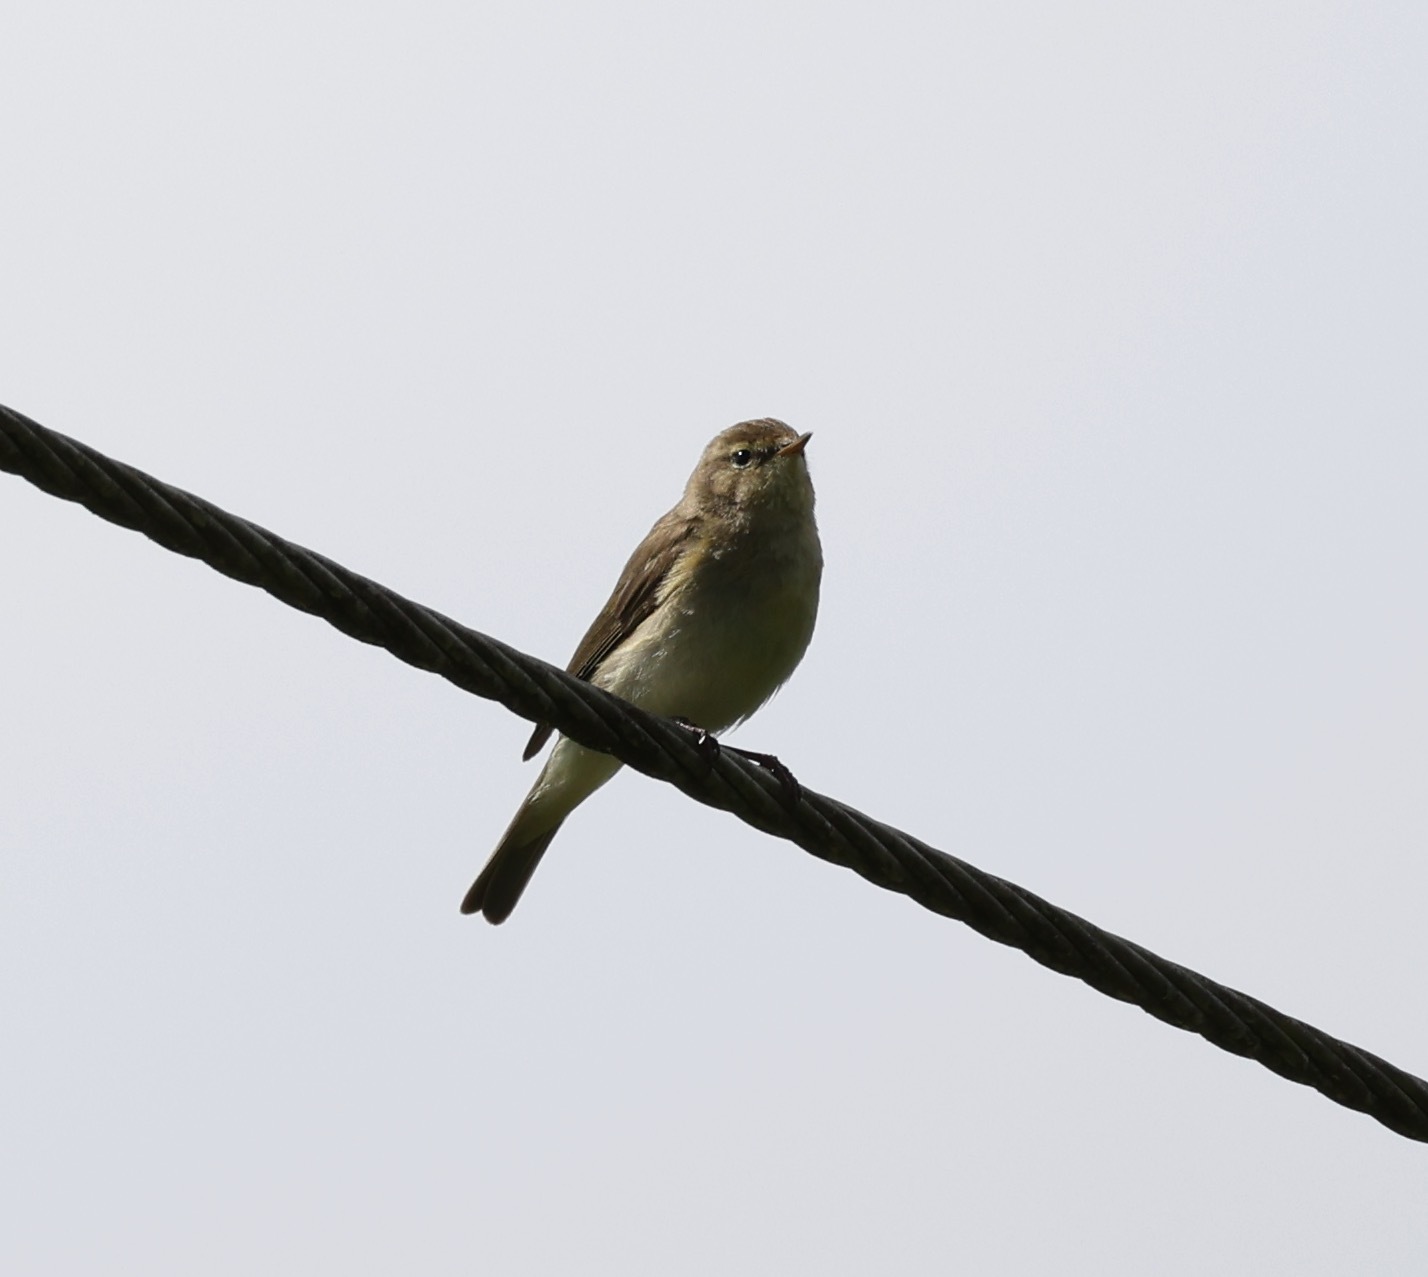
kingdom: Animalia
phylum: Chordata
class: Aves
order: Passeriformes
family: Phylloscopidae
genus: Phylloscopus
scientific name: Phylloscopus collybita
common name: Common chiffchaff
